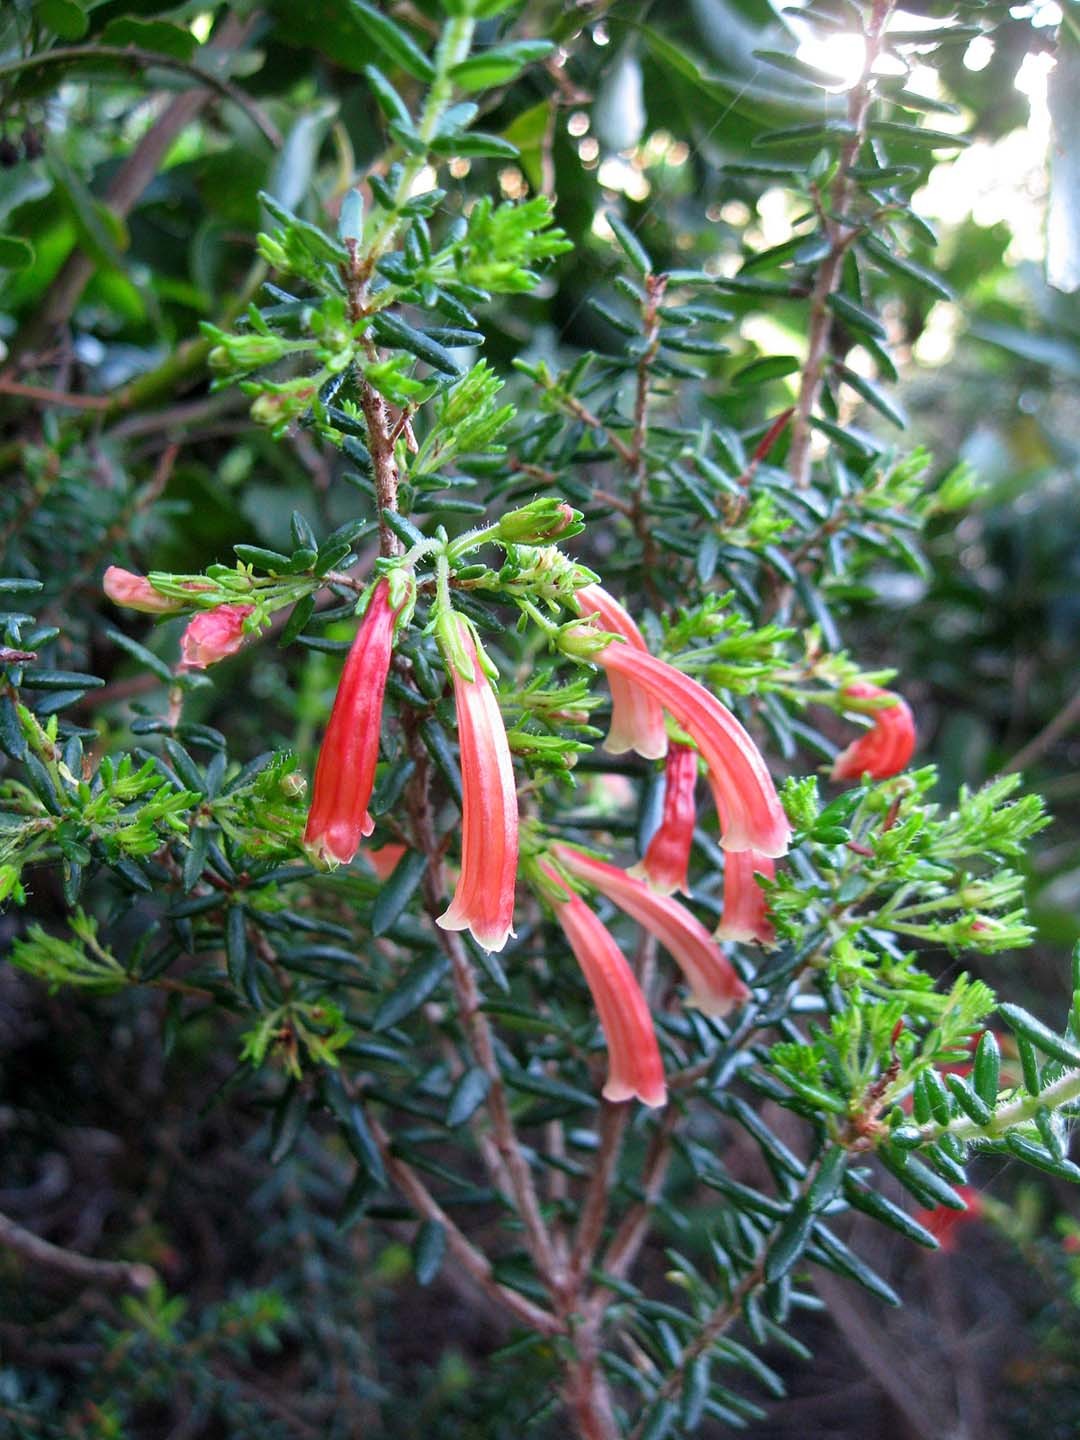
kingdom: Plantae
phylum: Tracheophyta
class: Magnoliopsida
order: Ericales
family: Ericaceae
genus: Erica
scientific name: Erica glandulosa
